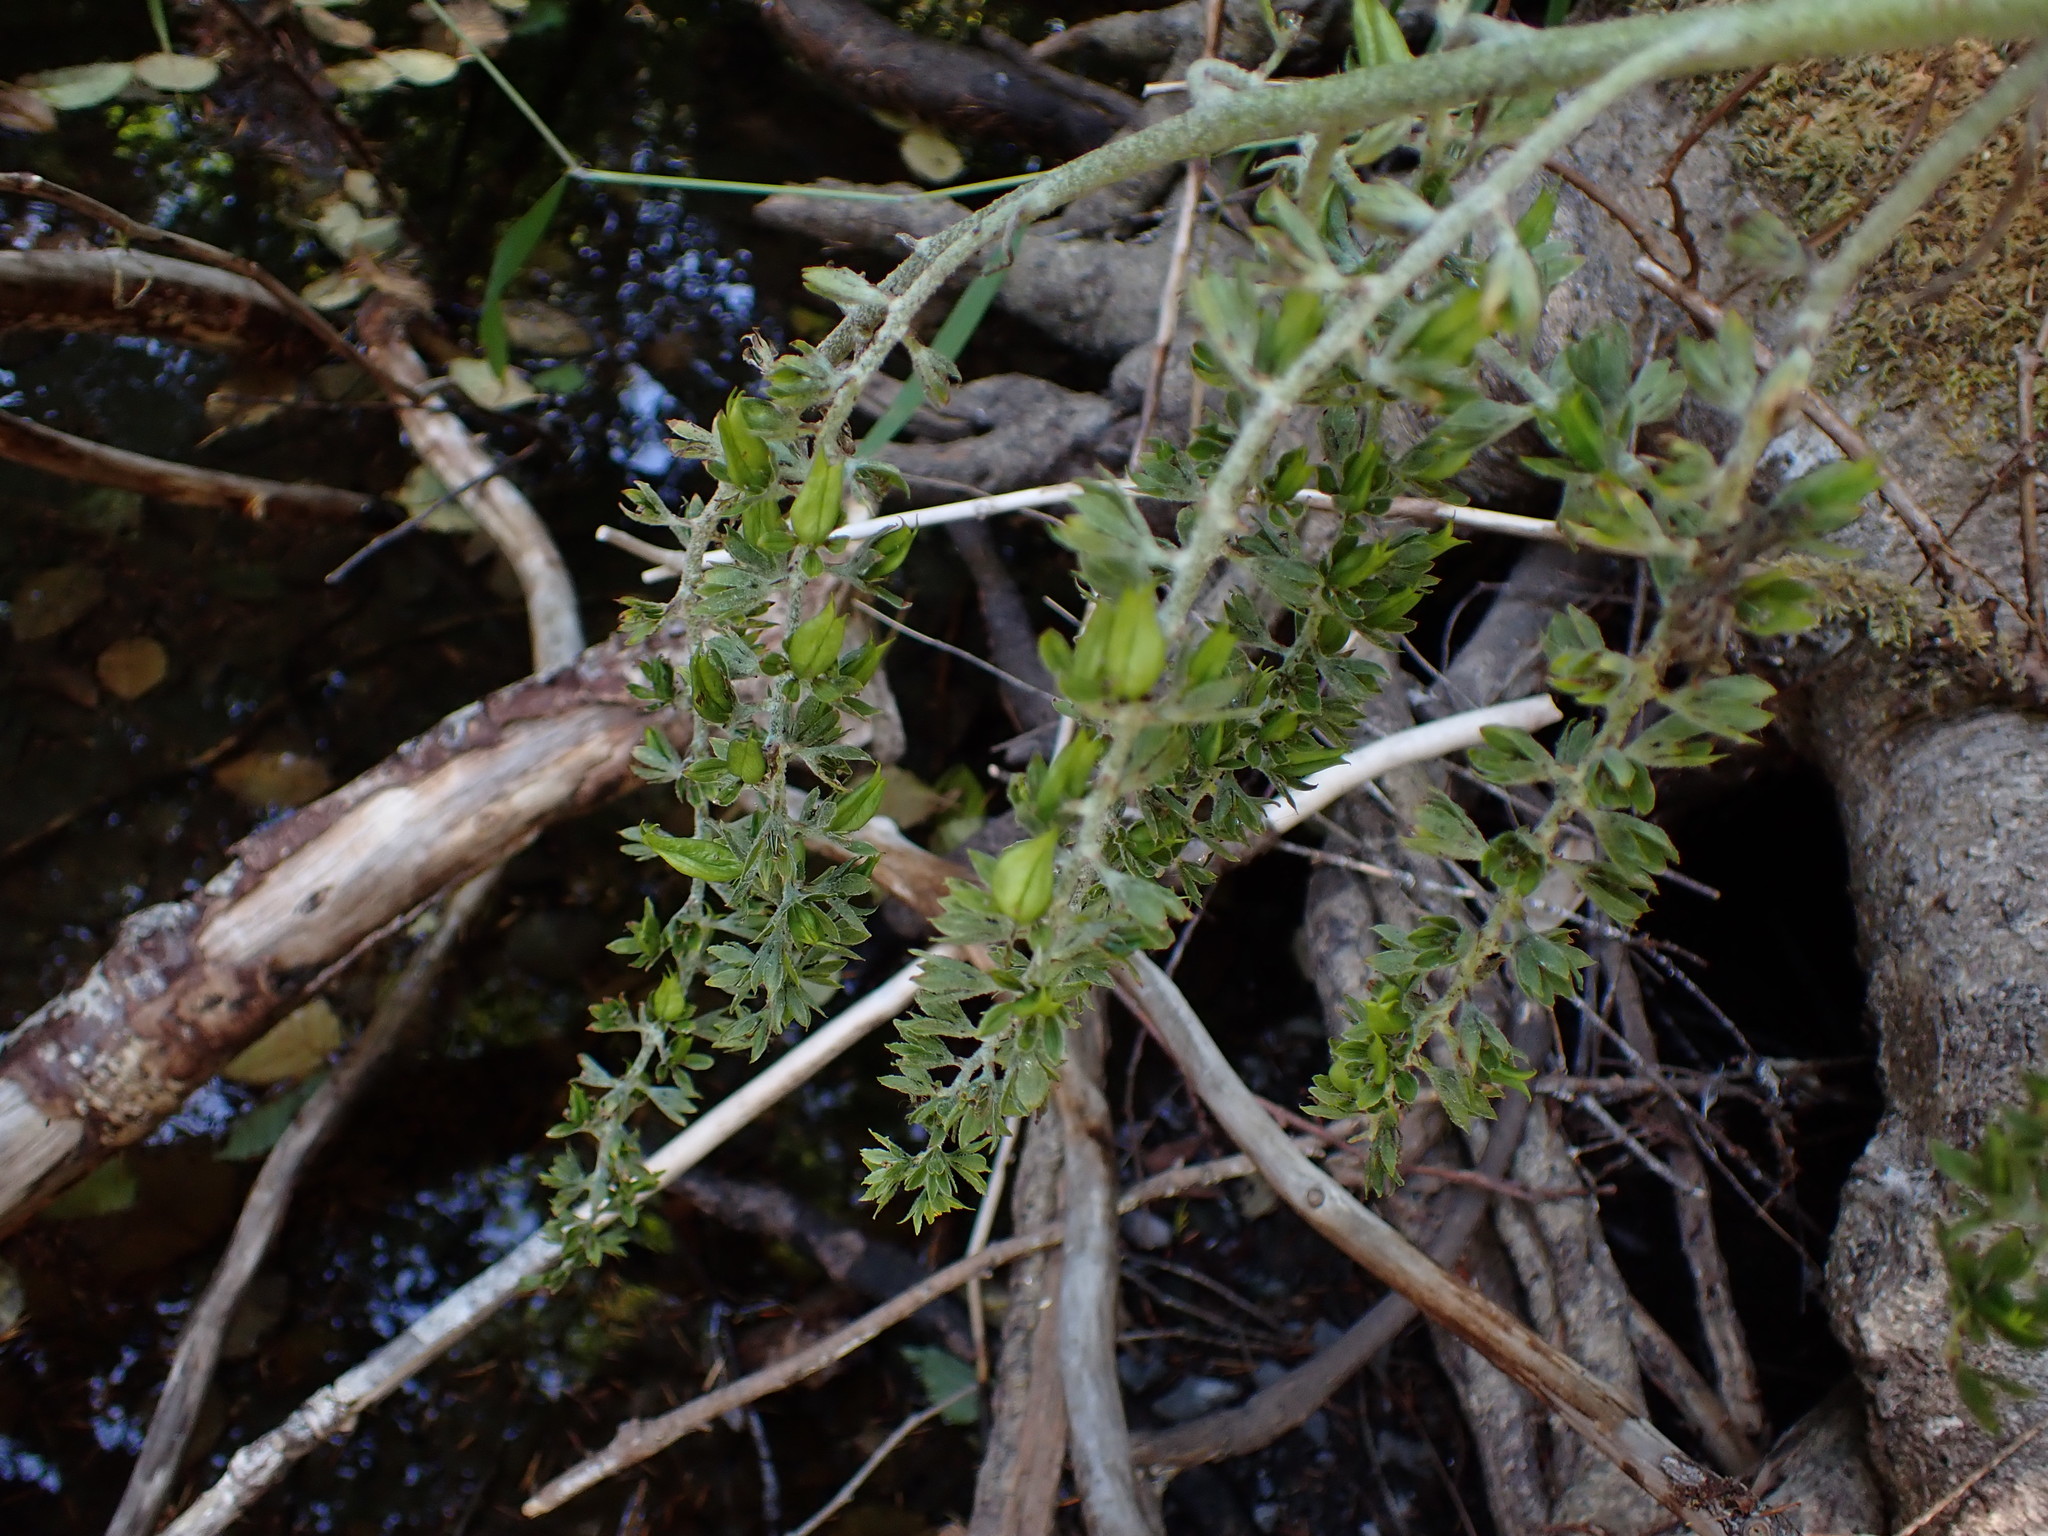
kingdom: Plantae
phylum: Tracheophyta
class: Liliopsida
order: Liliales
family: Melanthiaceae
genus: Veratrum
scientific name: Veratrum viride
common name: American false hellebore
